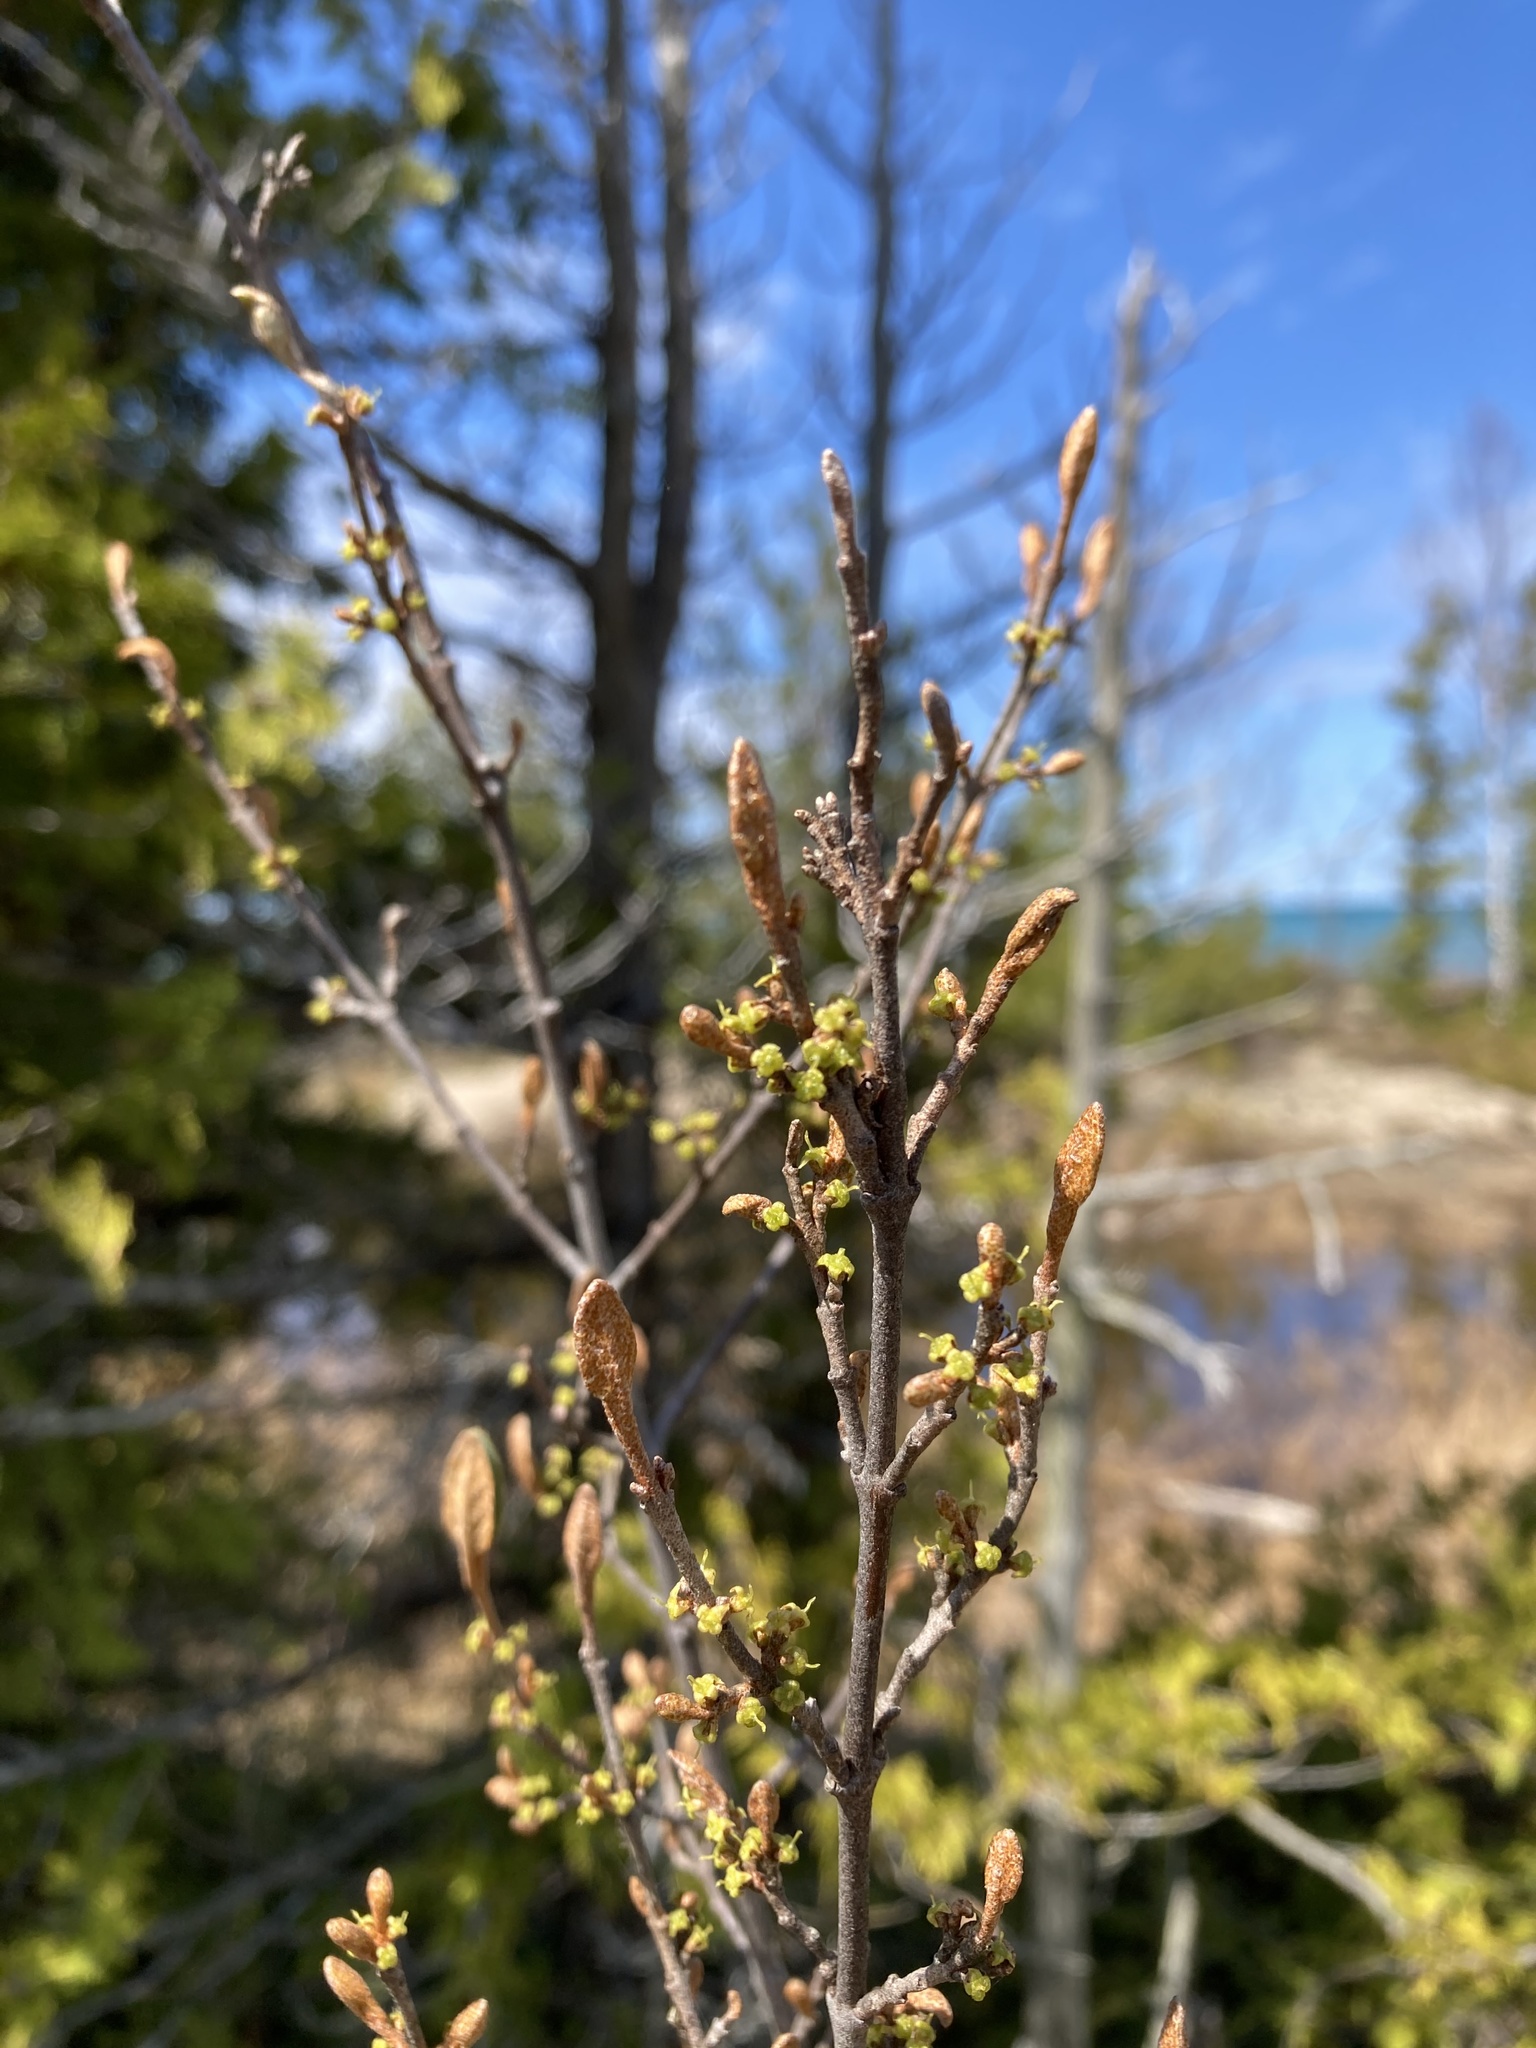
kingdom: Plantae
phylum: Tracheophyta
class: Magnoliopsida
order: Rosales
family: Elaeagnaceae
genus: Shepherdia
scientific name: Shepherdia canadensis
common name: Soapberry
